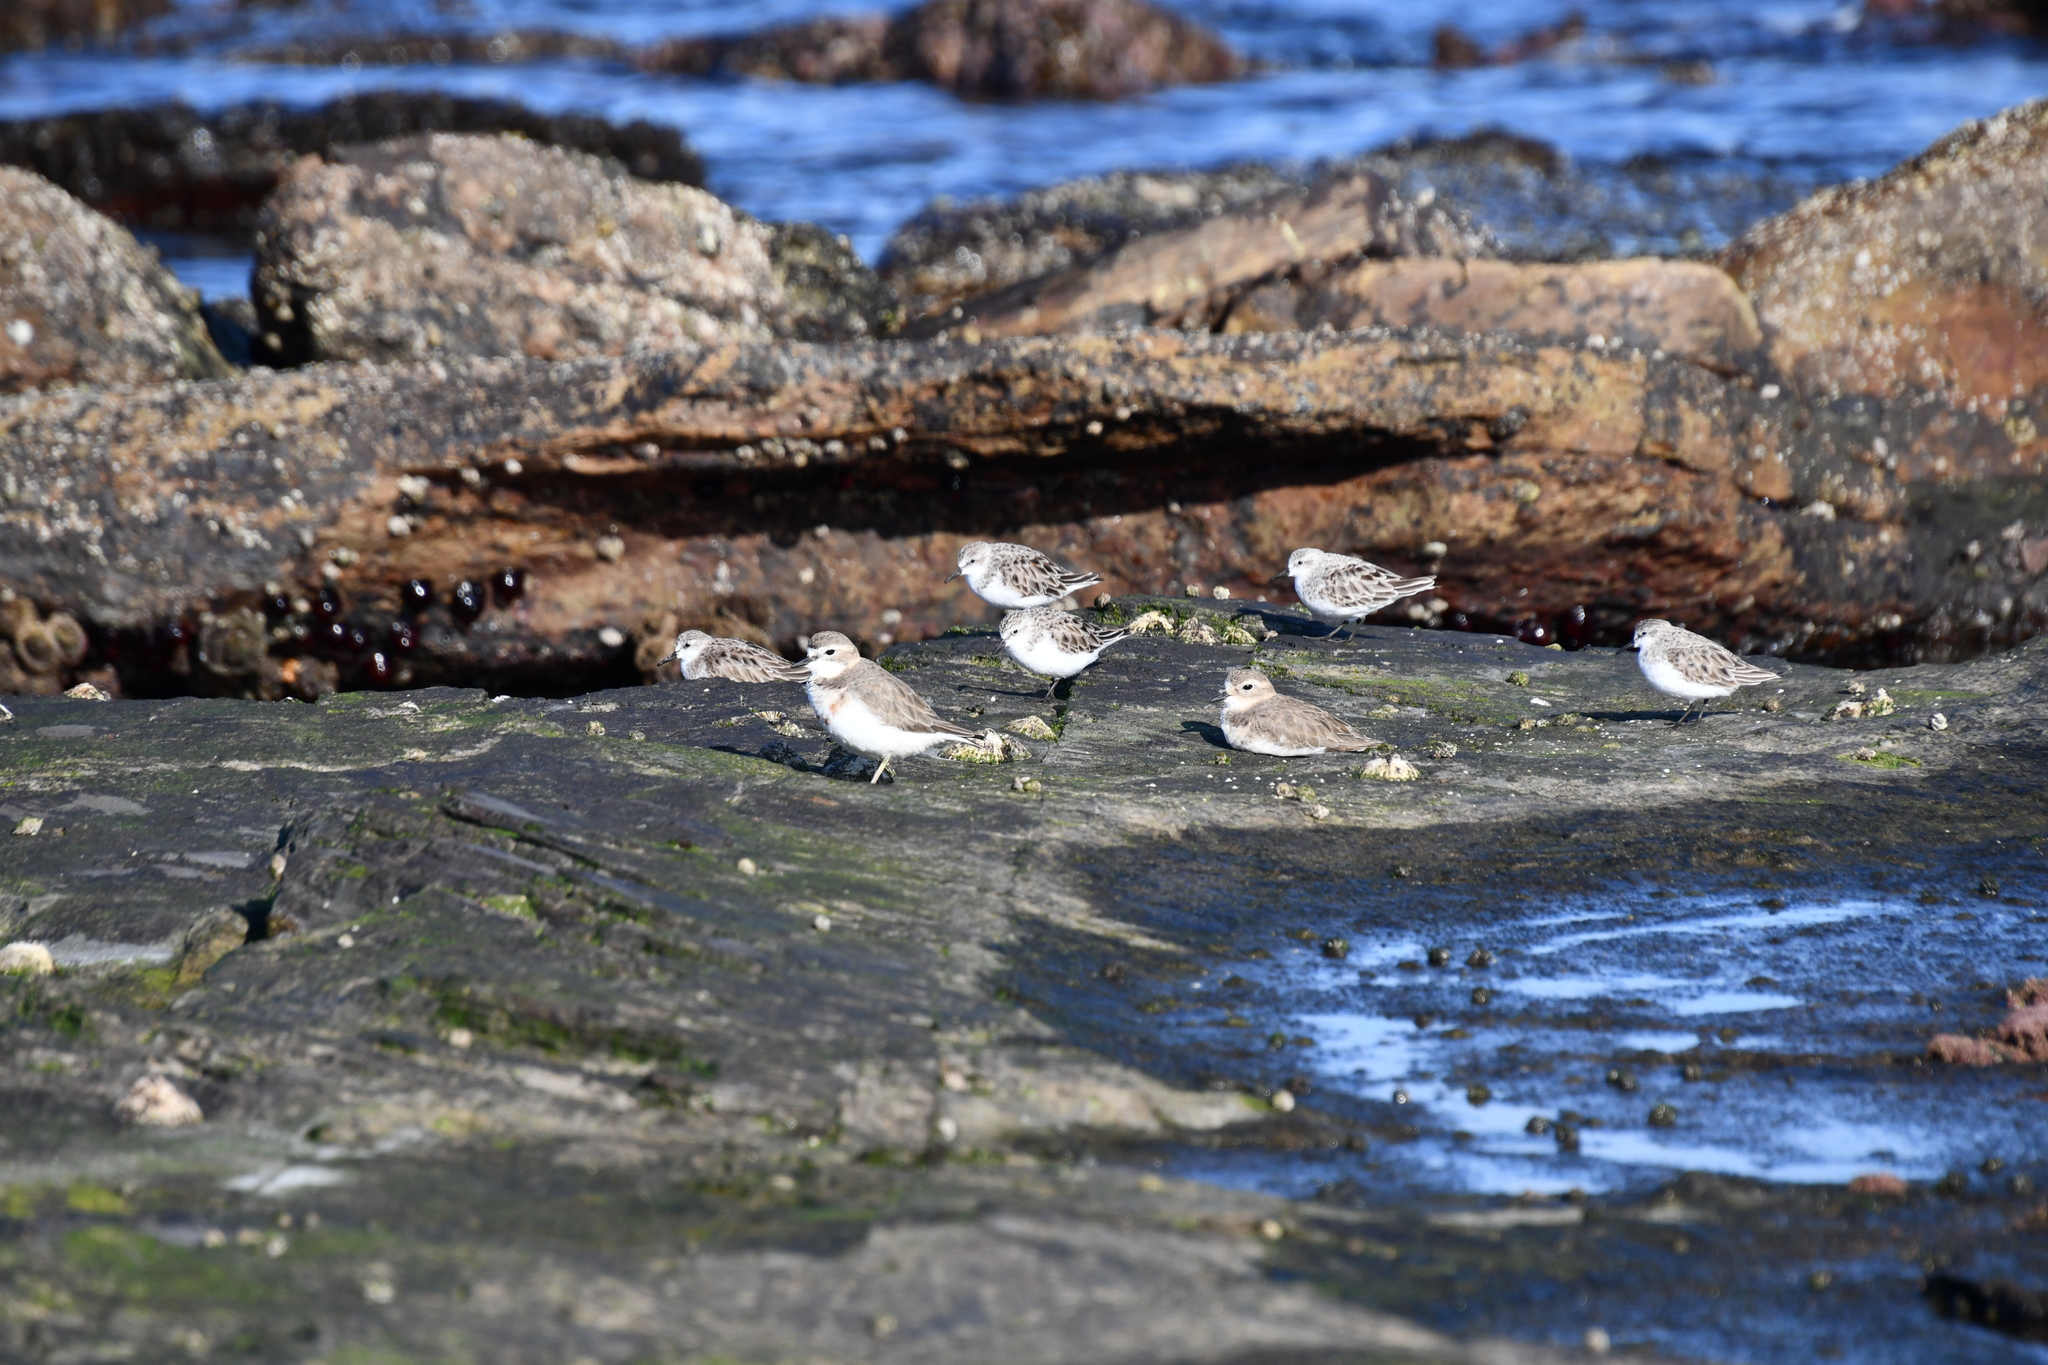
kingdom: Animalia
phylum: Chordata
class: Aves
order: Charadriiformes
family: Scolopacidae
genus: Calidris
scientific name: Calidris ruficollis
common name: Red-necked stint
